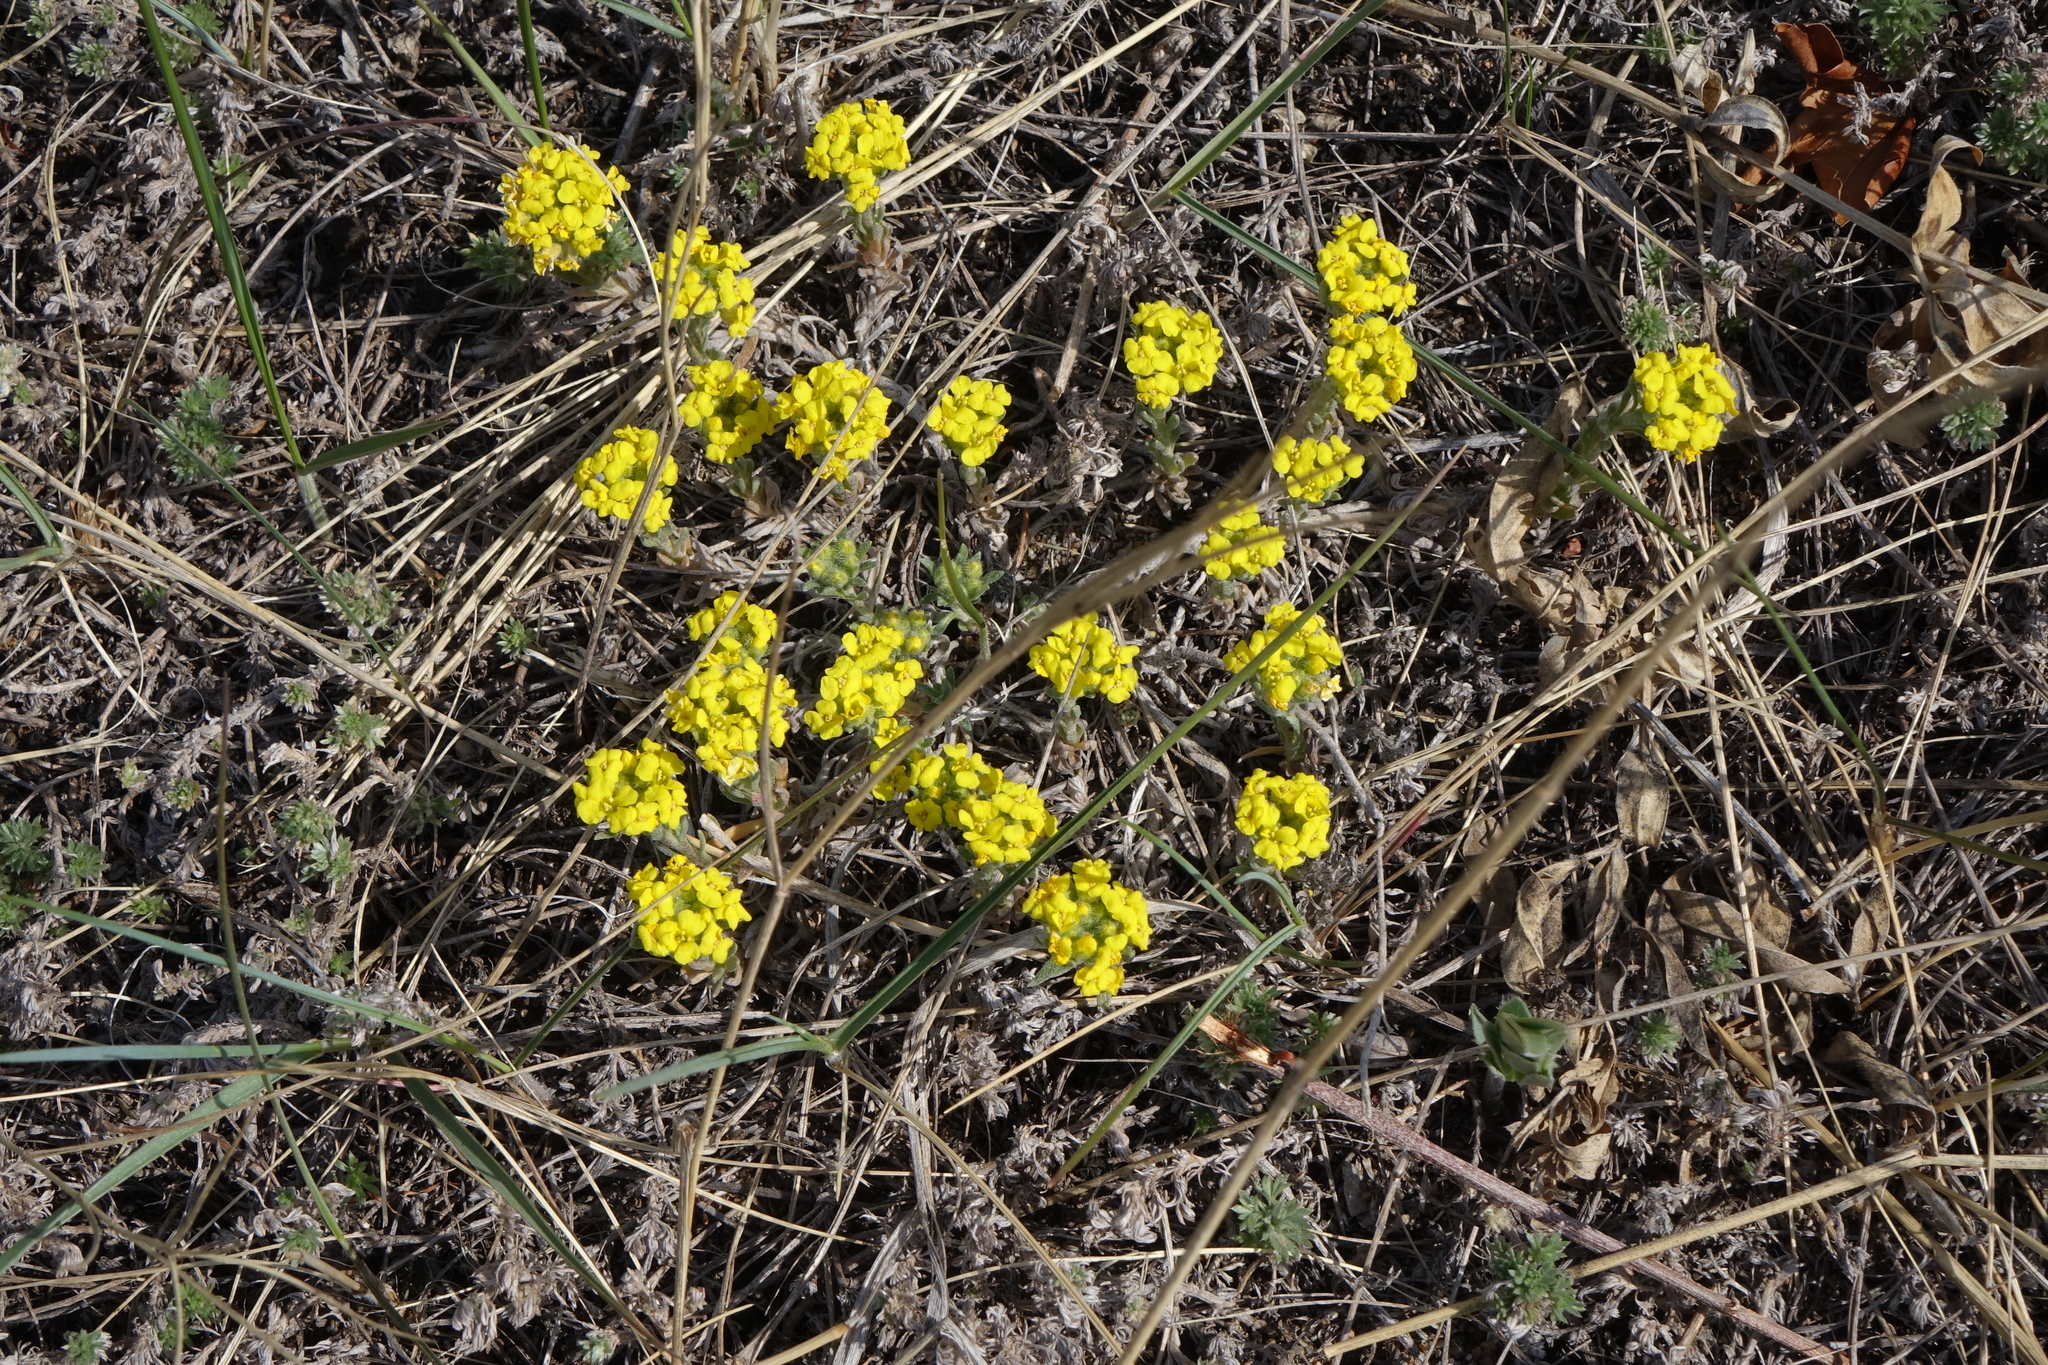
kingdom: Plantae
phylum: Tracheophyta
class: Magnoliopsida
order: Brassicales
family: Brassicaceae
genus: Alyssum
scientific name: Alyssum lenense
